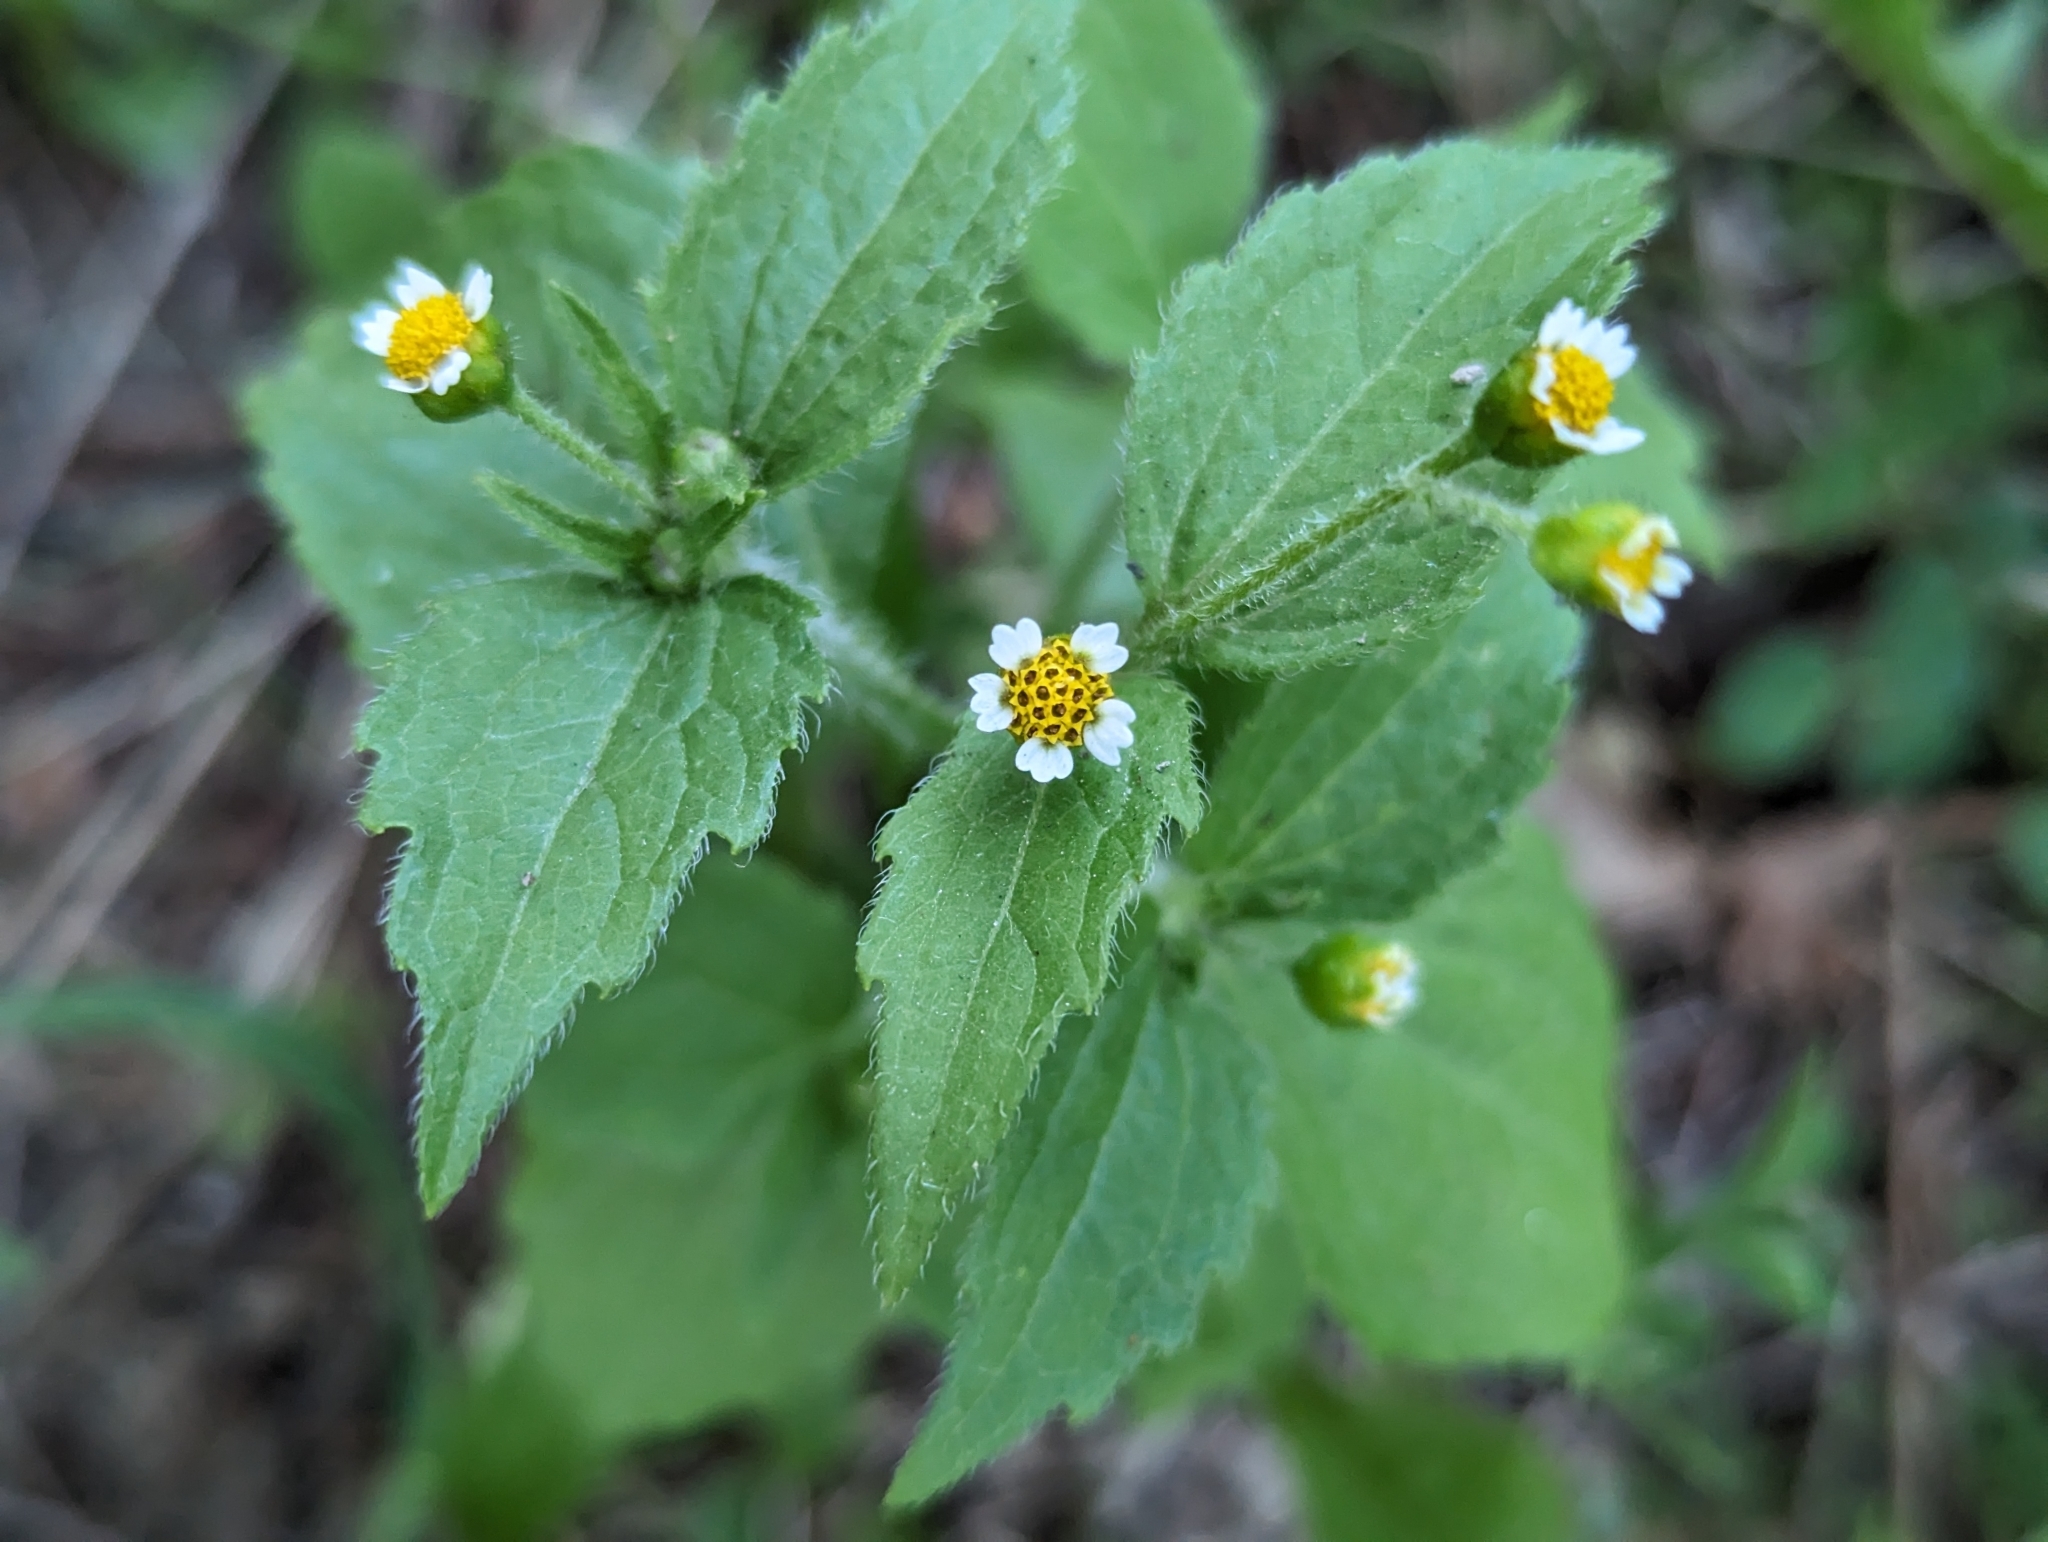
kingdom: Plantae
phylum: Tracheophyta
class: Magnoliopsida
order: Asterales
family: Asteraceae
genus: Galinsoga
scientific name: Galinsoga quadriradiata
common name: Shaggy soldier
